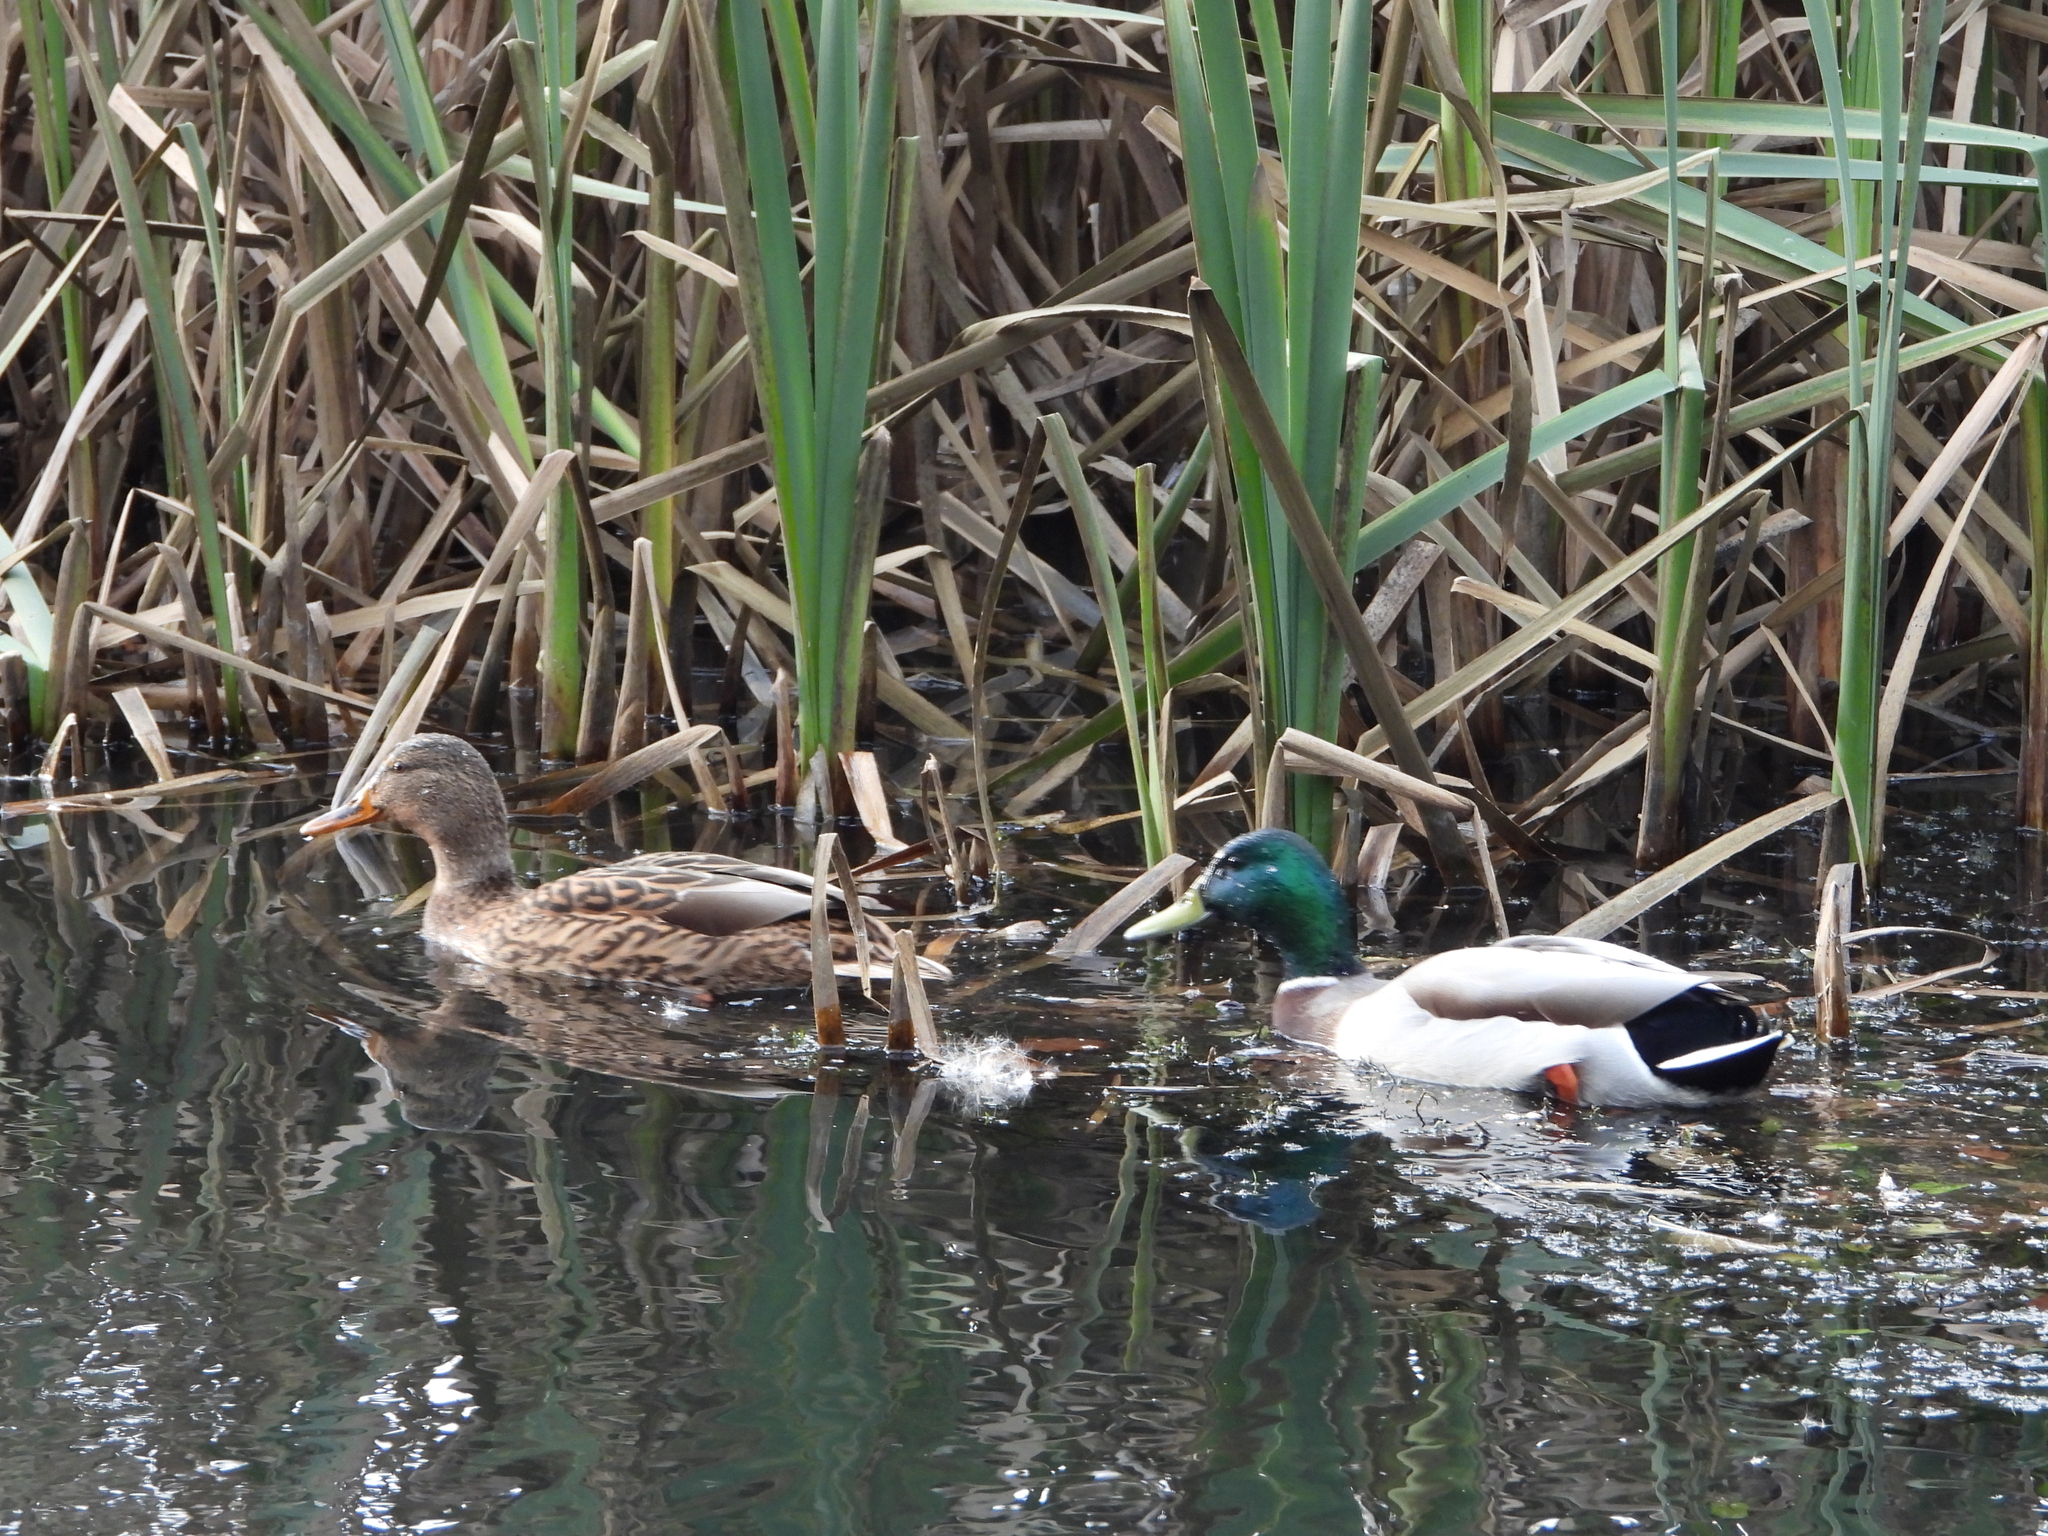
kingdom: Animalia
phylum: Chordata
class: Aves
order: Anseriformes
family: Anatidae
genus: Anas
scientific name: Anas platyrhynchos
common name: Mallard
